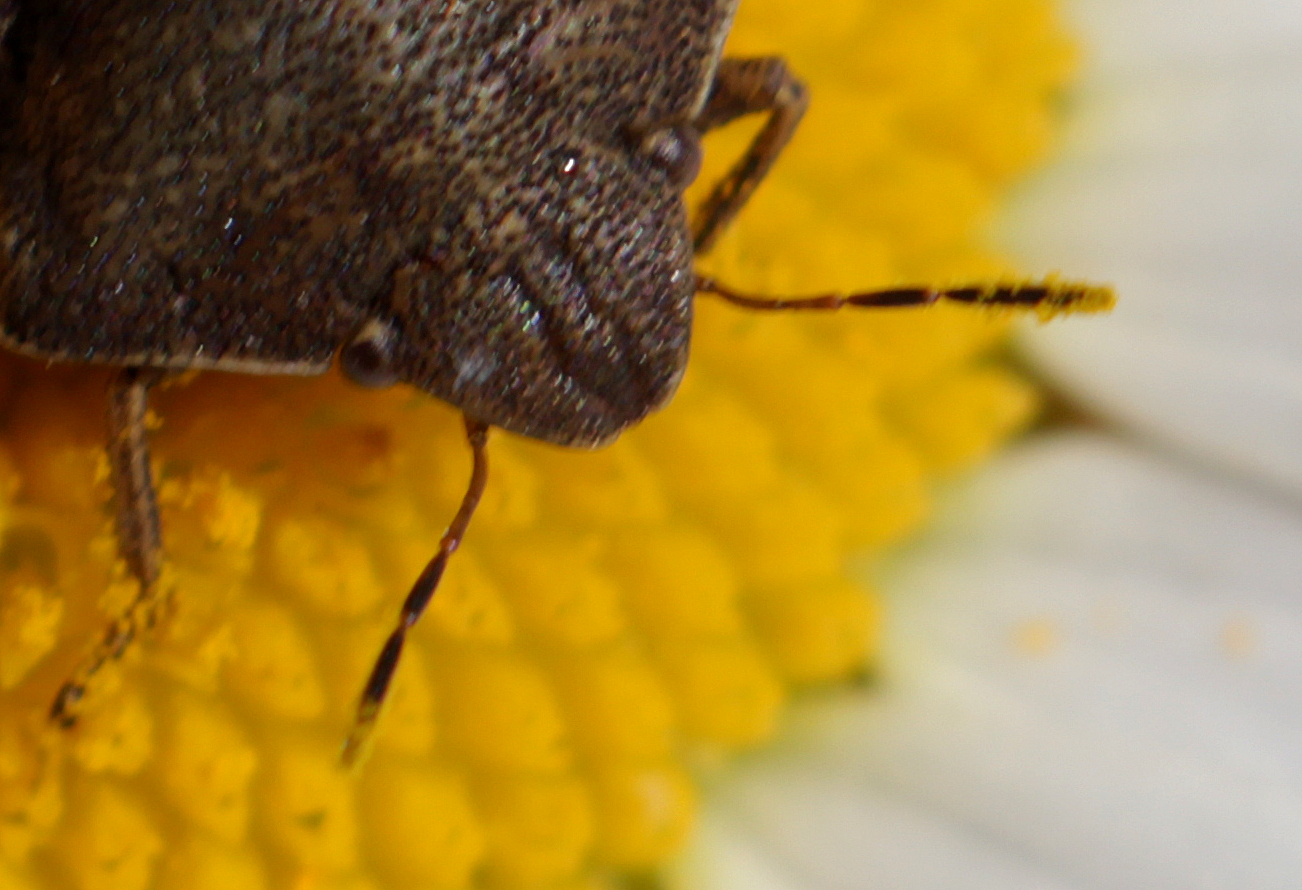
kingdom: Animalia
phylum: Arthropoda
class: Insecta
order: Hemiptera
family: Scutelleridae
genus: Eurygaster
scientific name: Eurygaster testudinaria
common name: Tortoise bug
